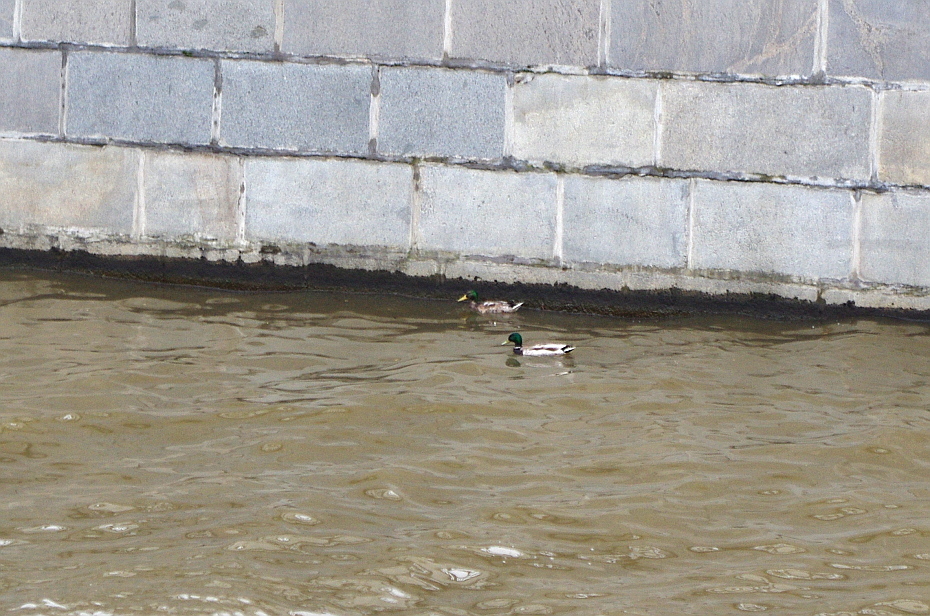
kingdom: Animalia
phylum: Chordata
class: Aves
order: Anseriformes
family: Anatidae
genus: Anas
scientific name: Anas platyrhynchos
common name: Mallard
